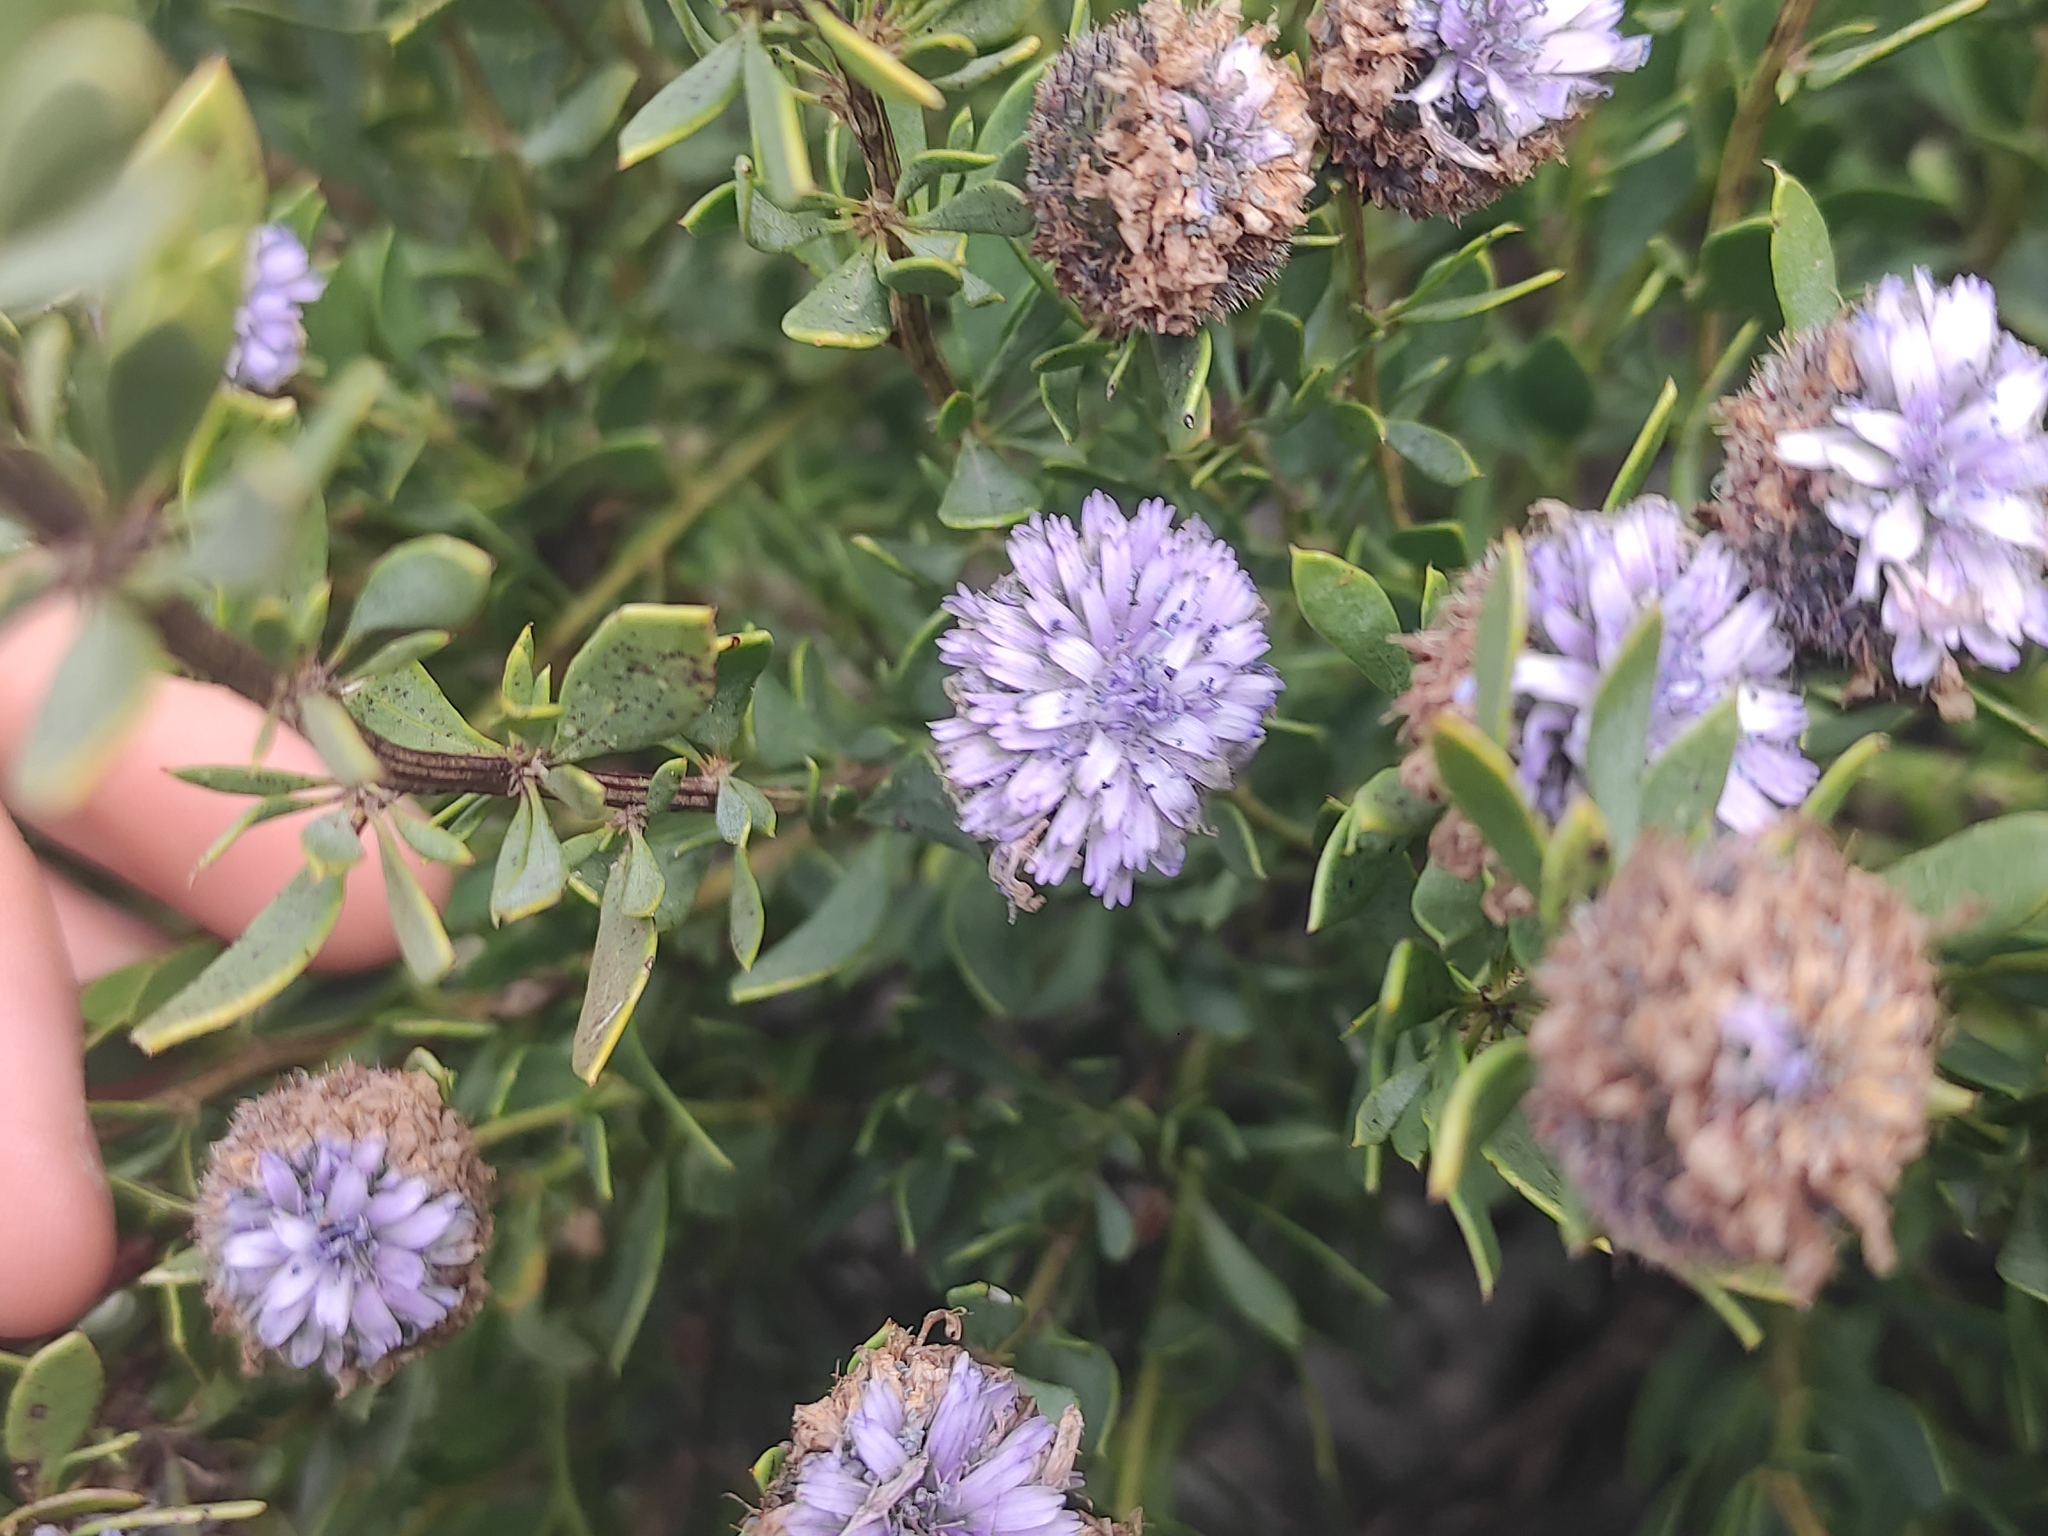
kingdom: Plantae
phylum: Tracheophyta
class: Magnoliopsida
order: Lamiales
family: Plantaginaceae
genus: Globularia
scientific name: Globularia alypum
